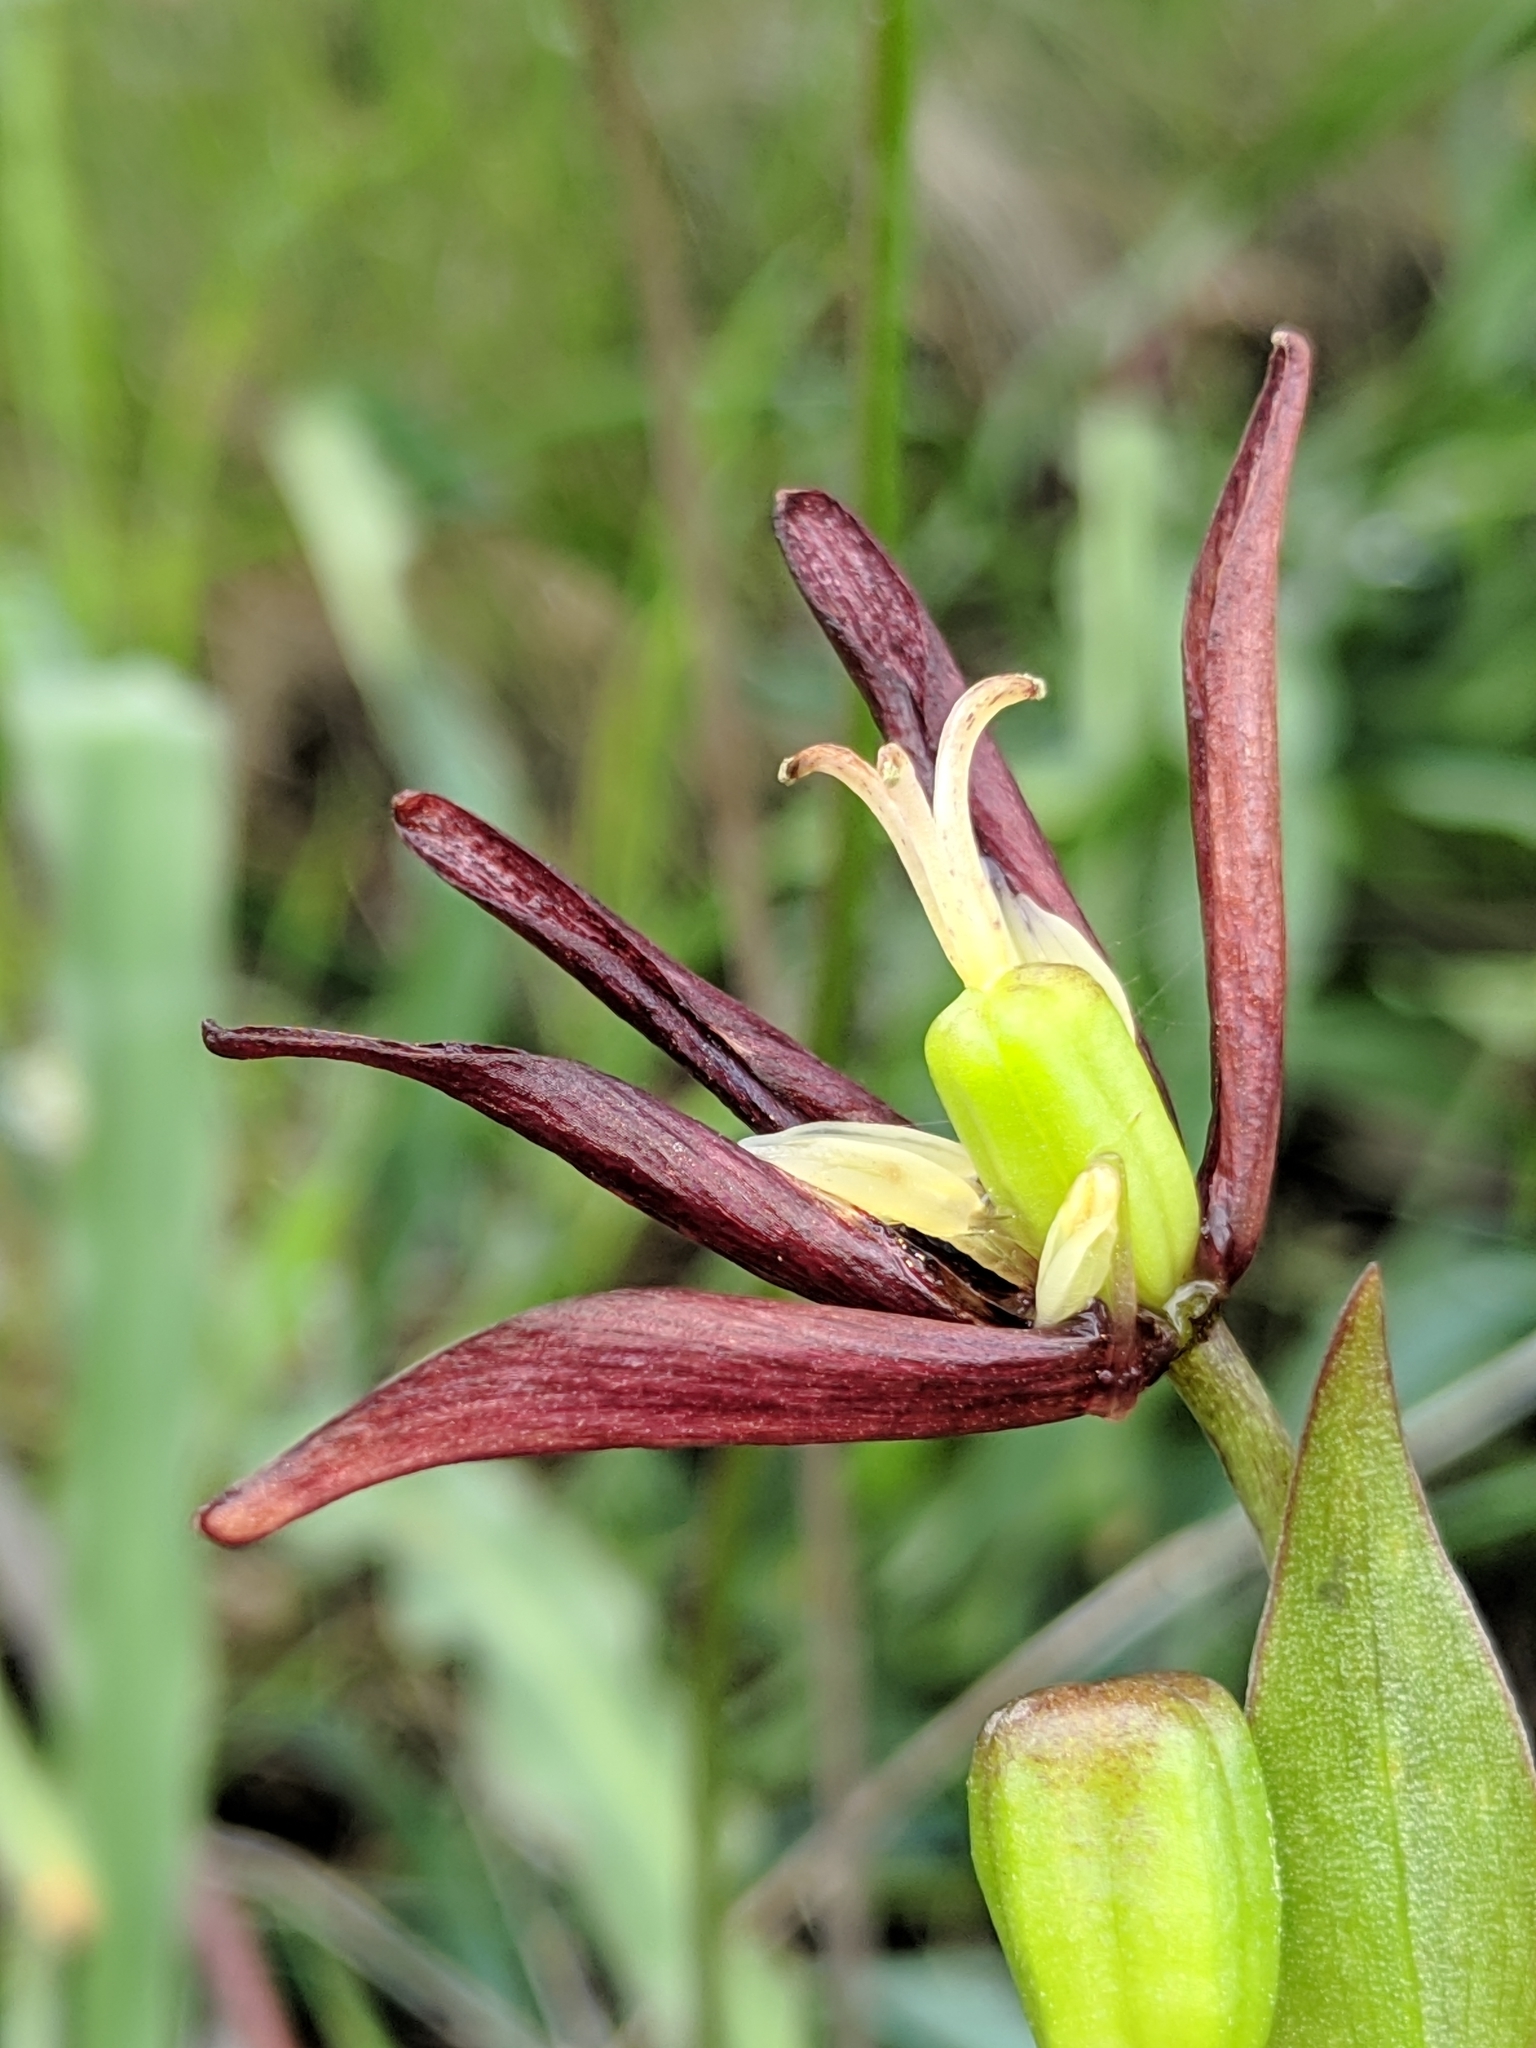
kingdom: Plantae
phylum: Tracheophyta
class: Liliopsida
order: Liliales
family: Liliaceae
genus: Fritillaria
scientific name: Fritillaria biflora
